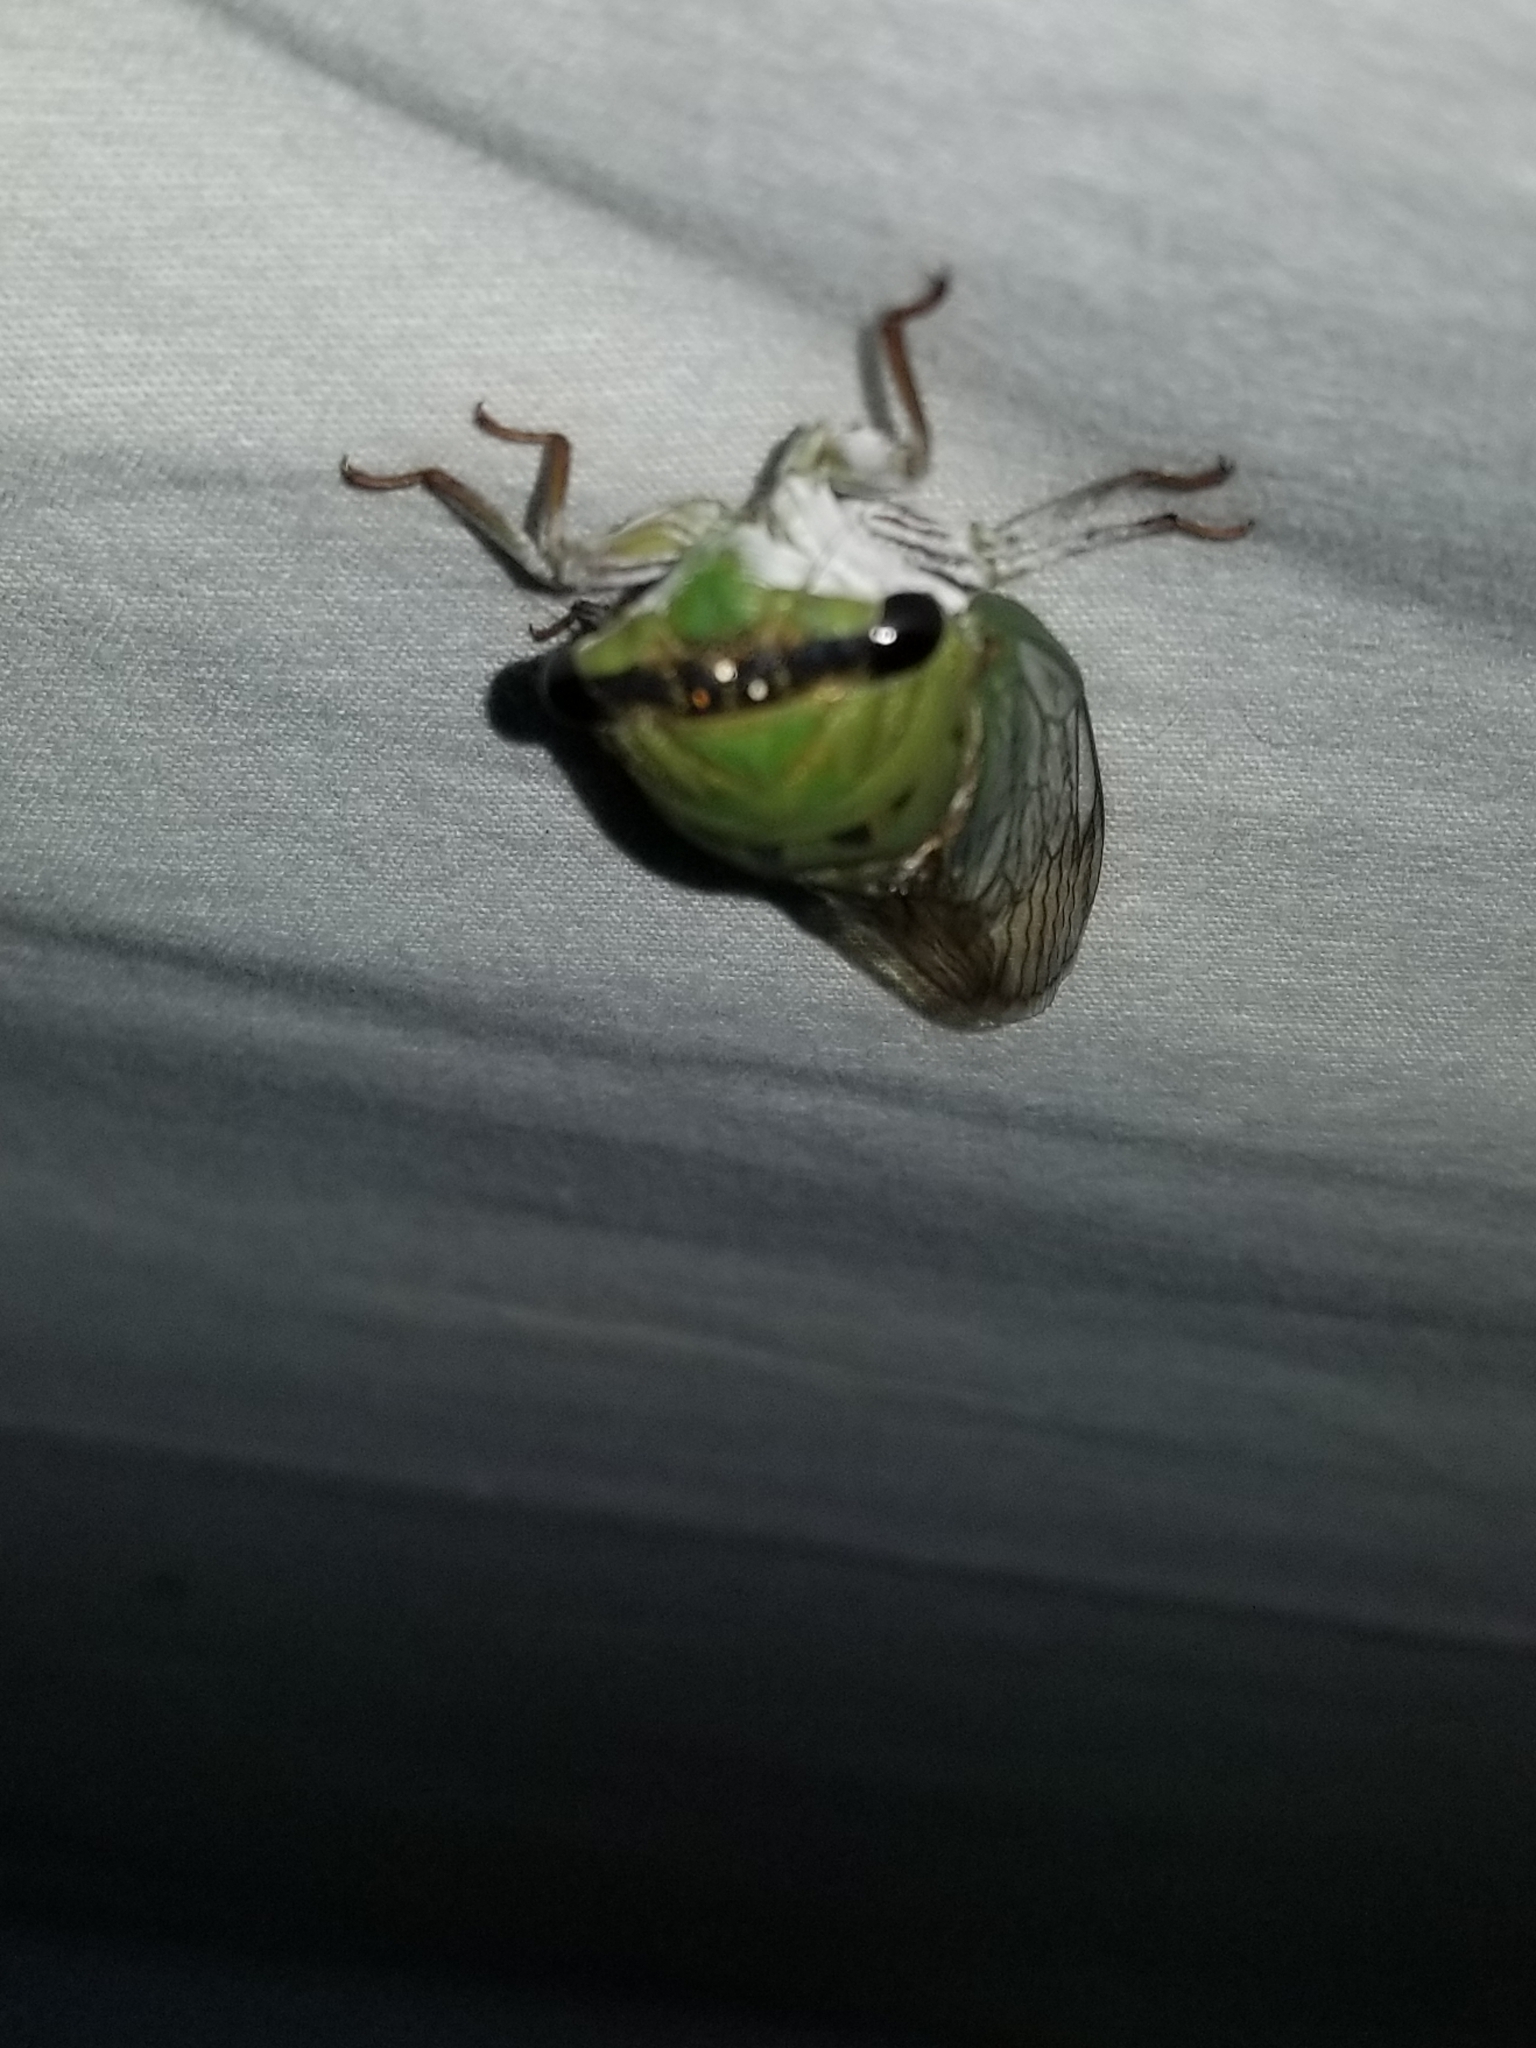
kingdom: Animalia
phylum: Arthropoda
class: Insecta
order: Hemiptera
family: Cicadidae
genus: Neotibicen
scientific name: Neotibicen superbus
